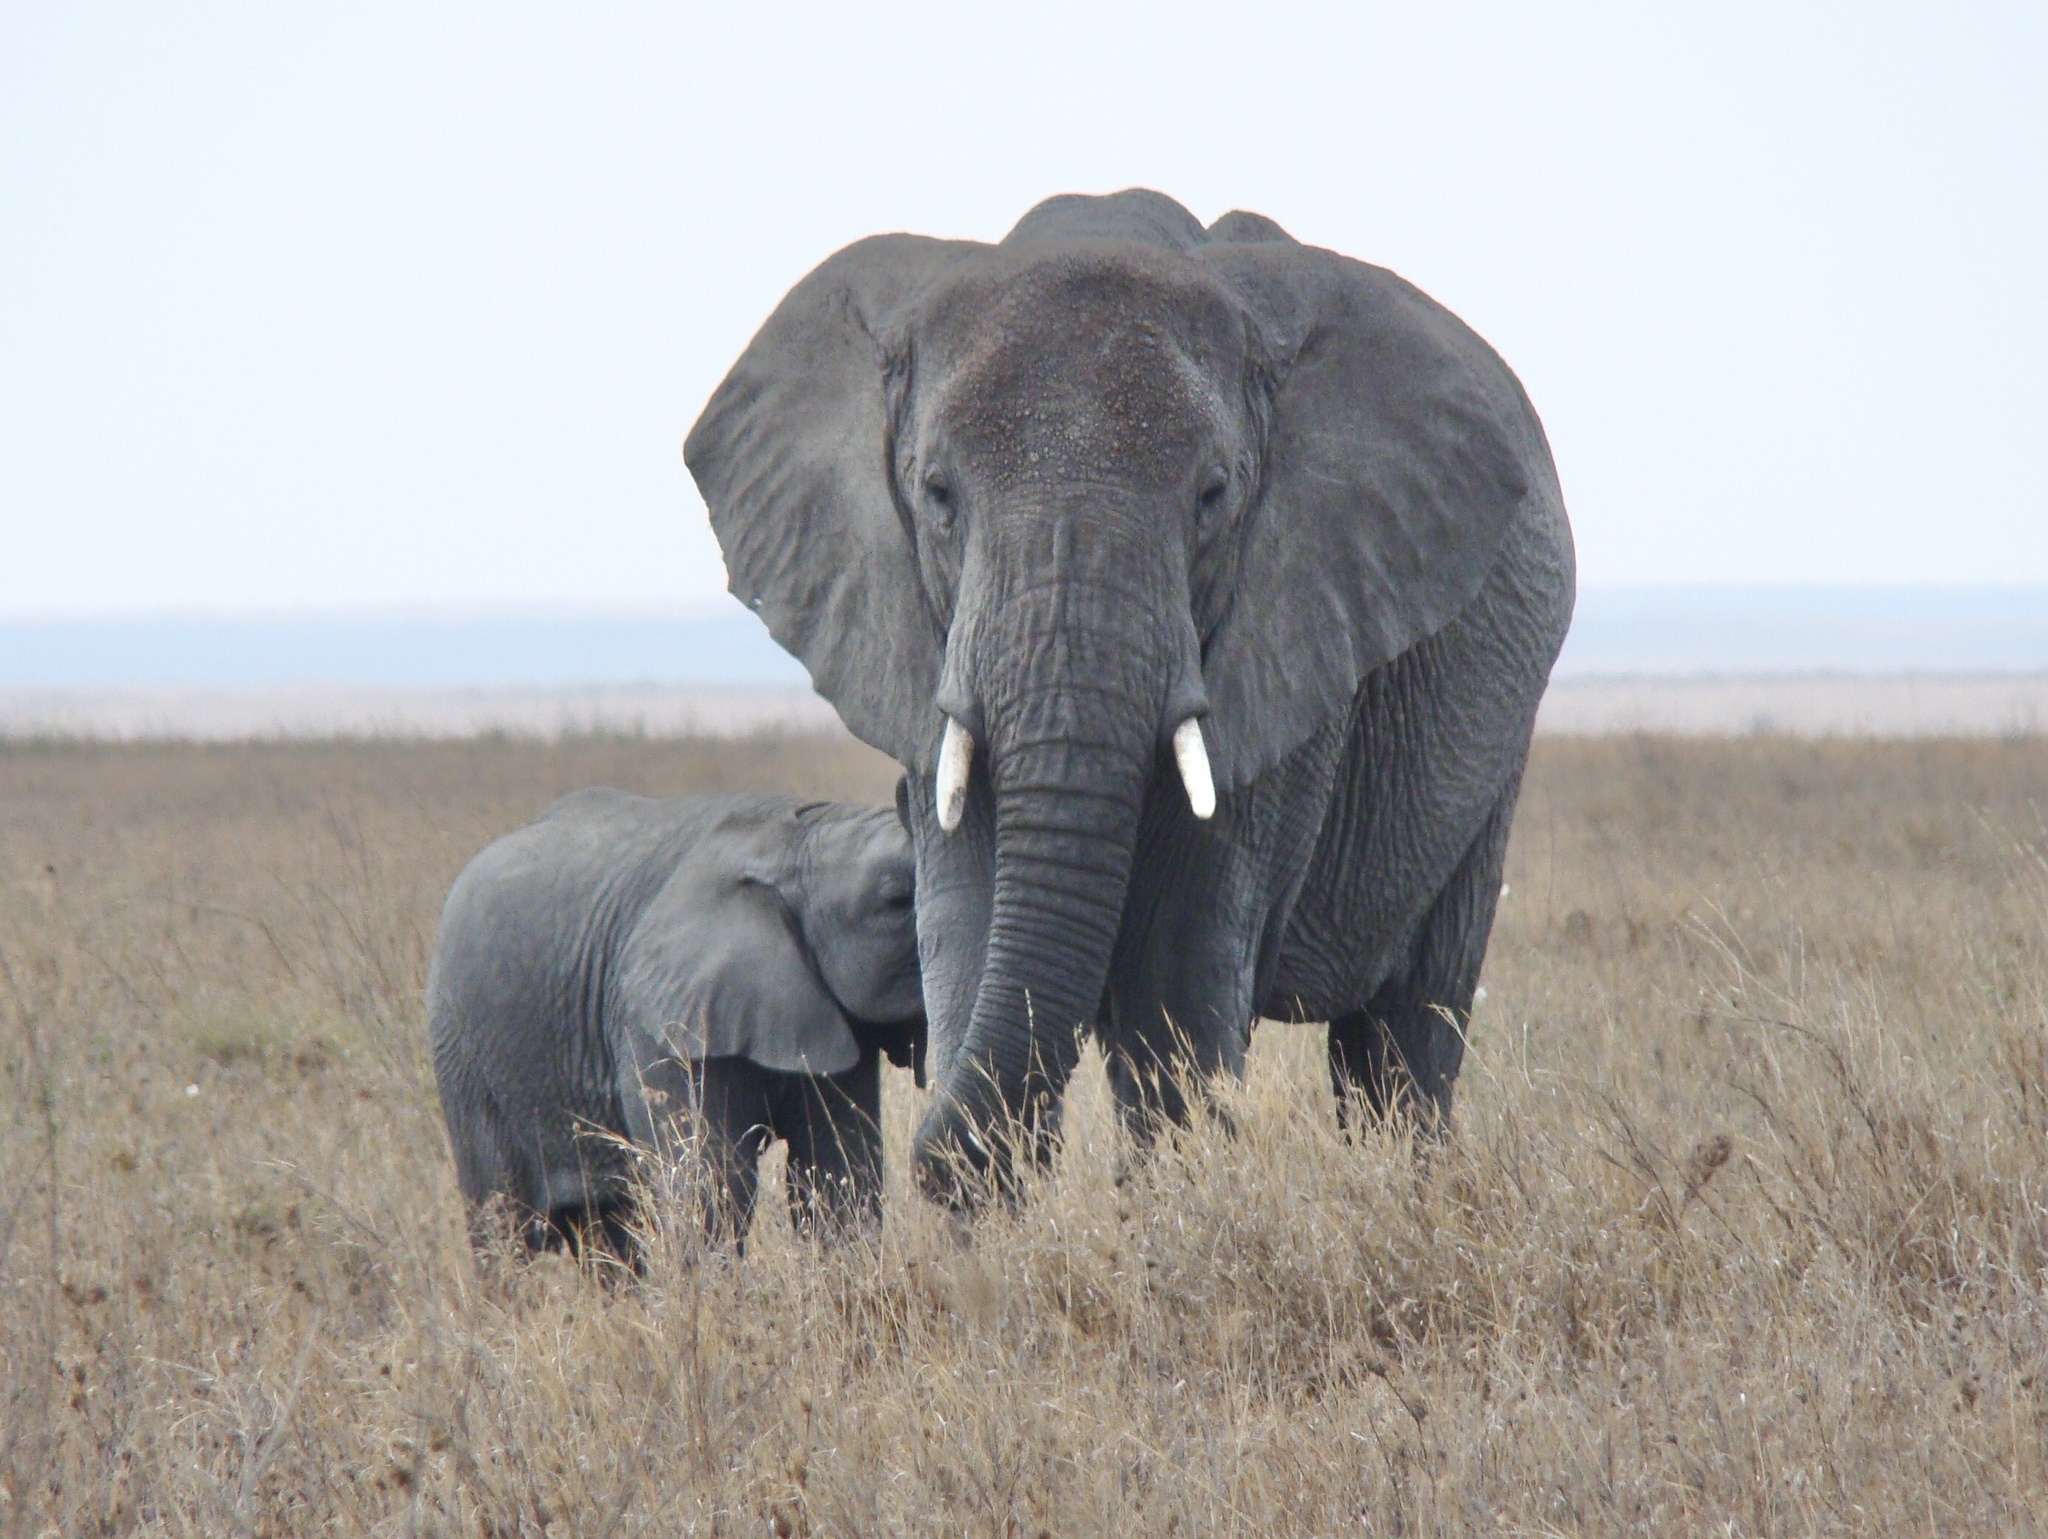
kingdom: Animalia
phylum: Chordata
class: Mammalia
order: Proboscidea
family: Elephantidae
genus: Loxodonta
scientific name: Loxodonta africana
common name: African elephant
